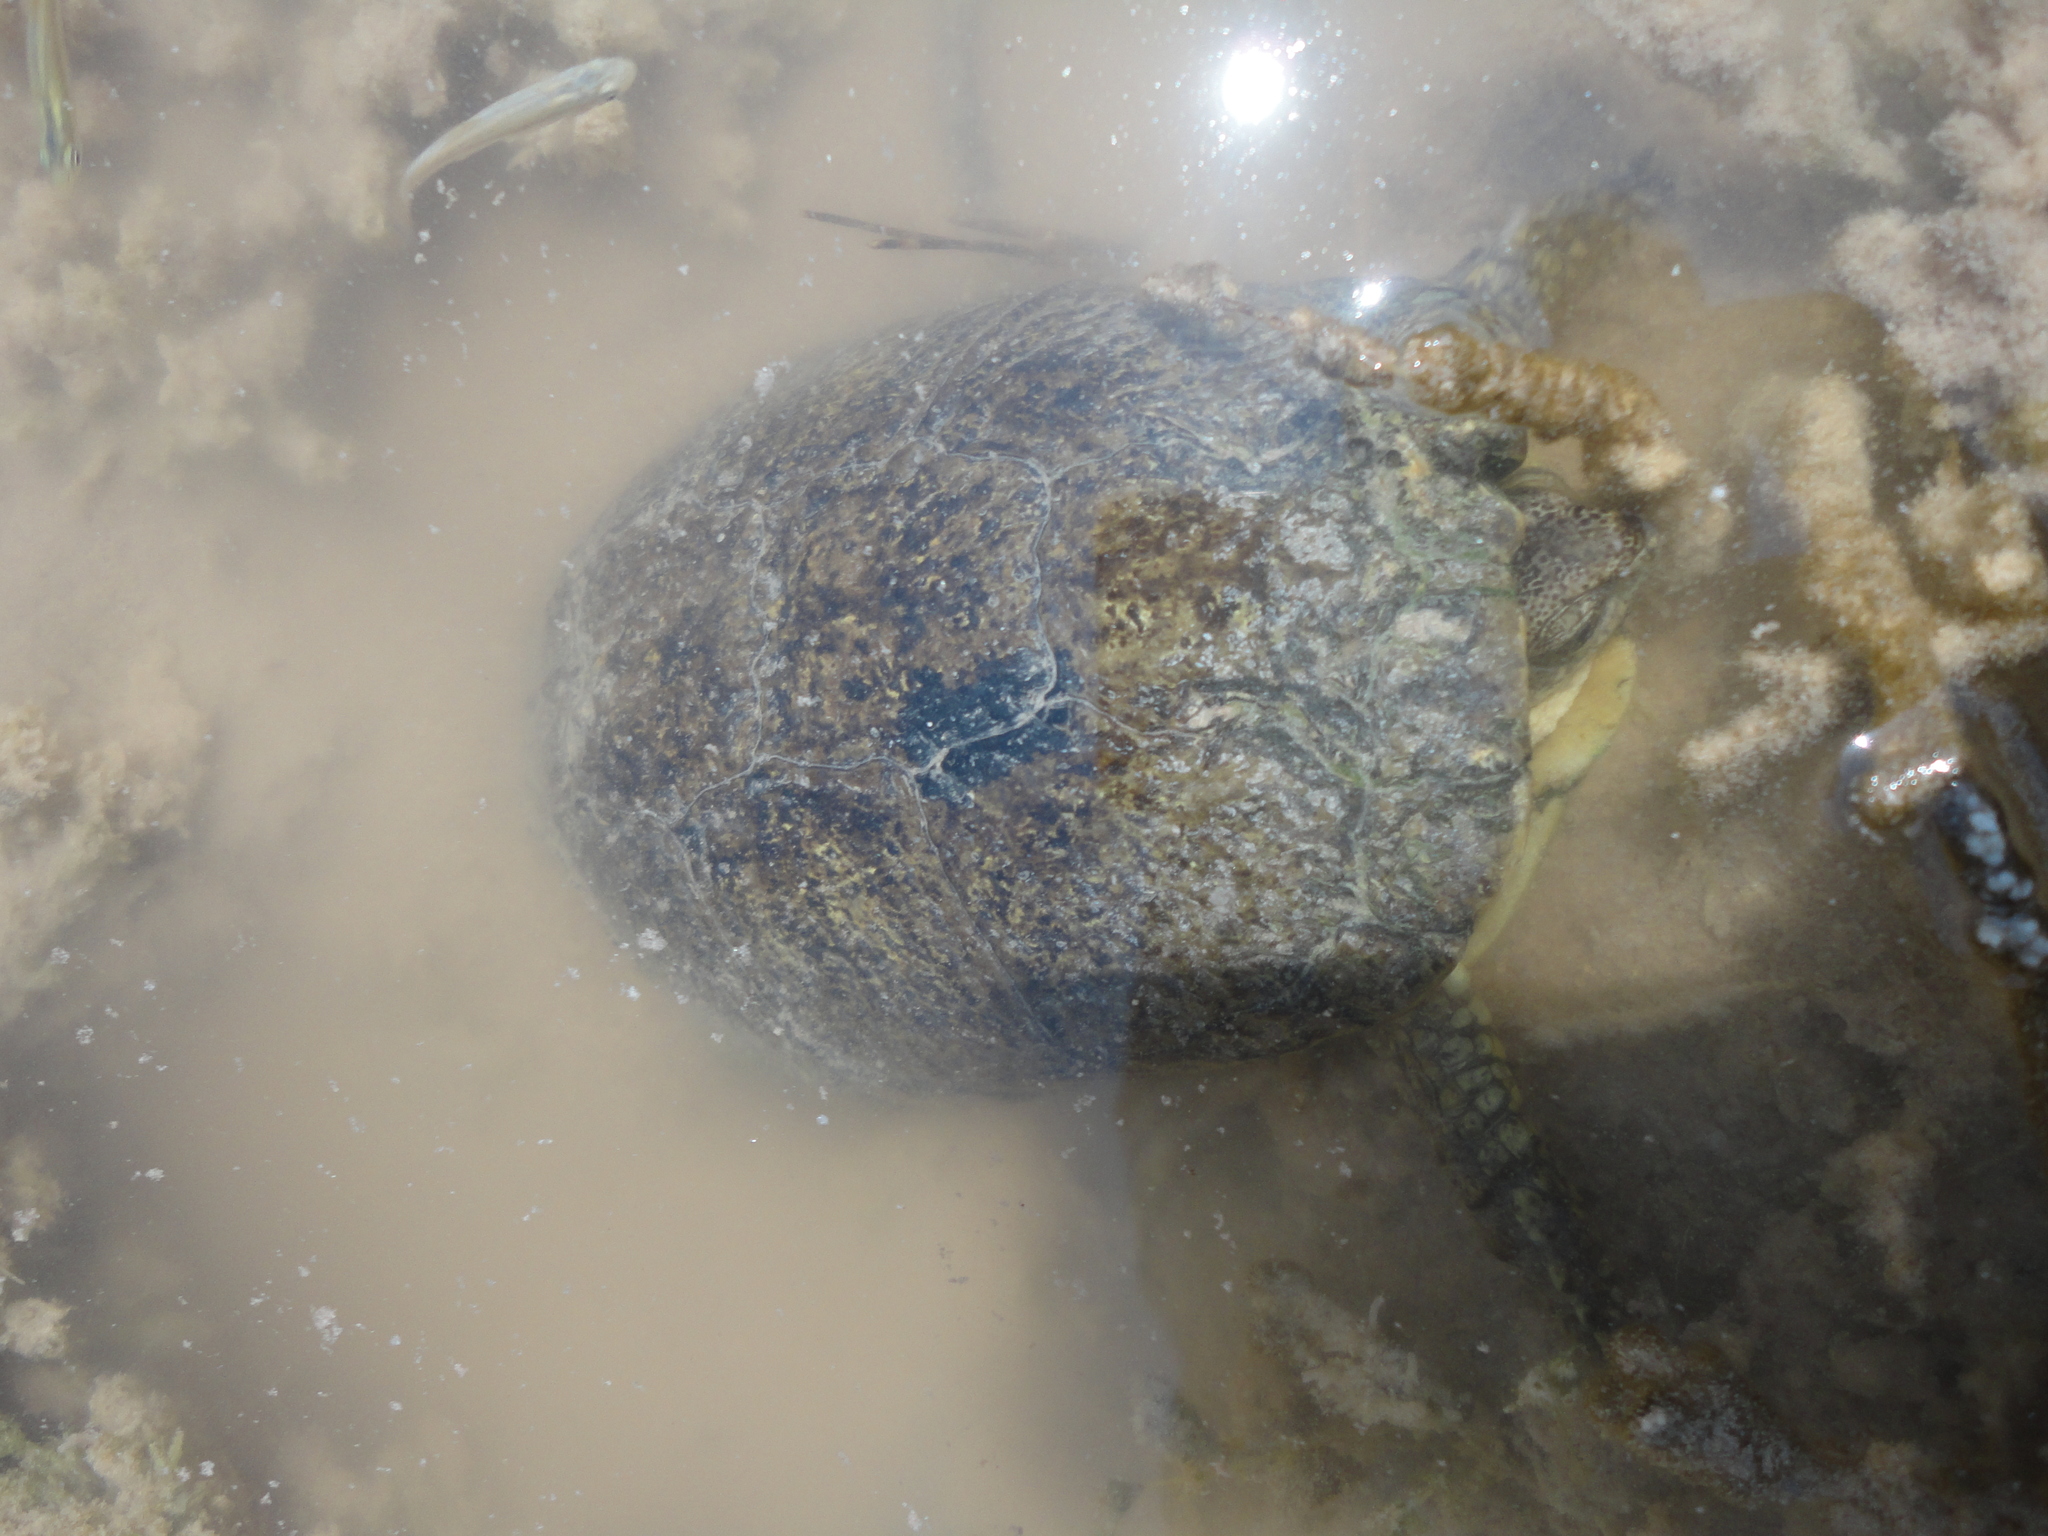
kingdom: Animalia
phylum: Chordata
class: Testudines
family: Emydidae
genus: Terrapene
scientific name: Terrapene coahuila
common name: Coahuilan box turtle
